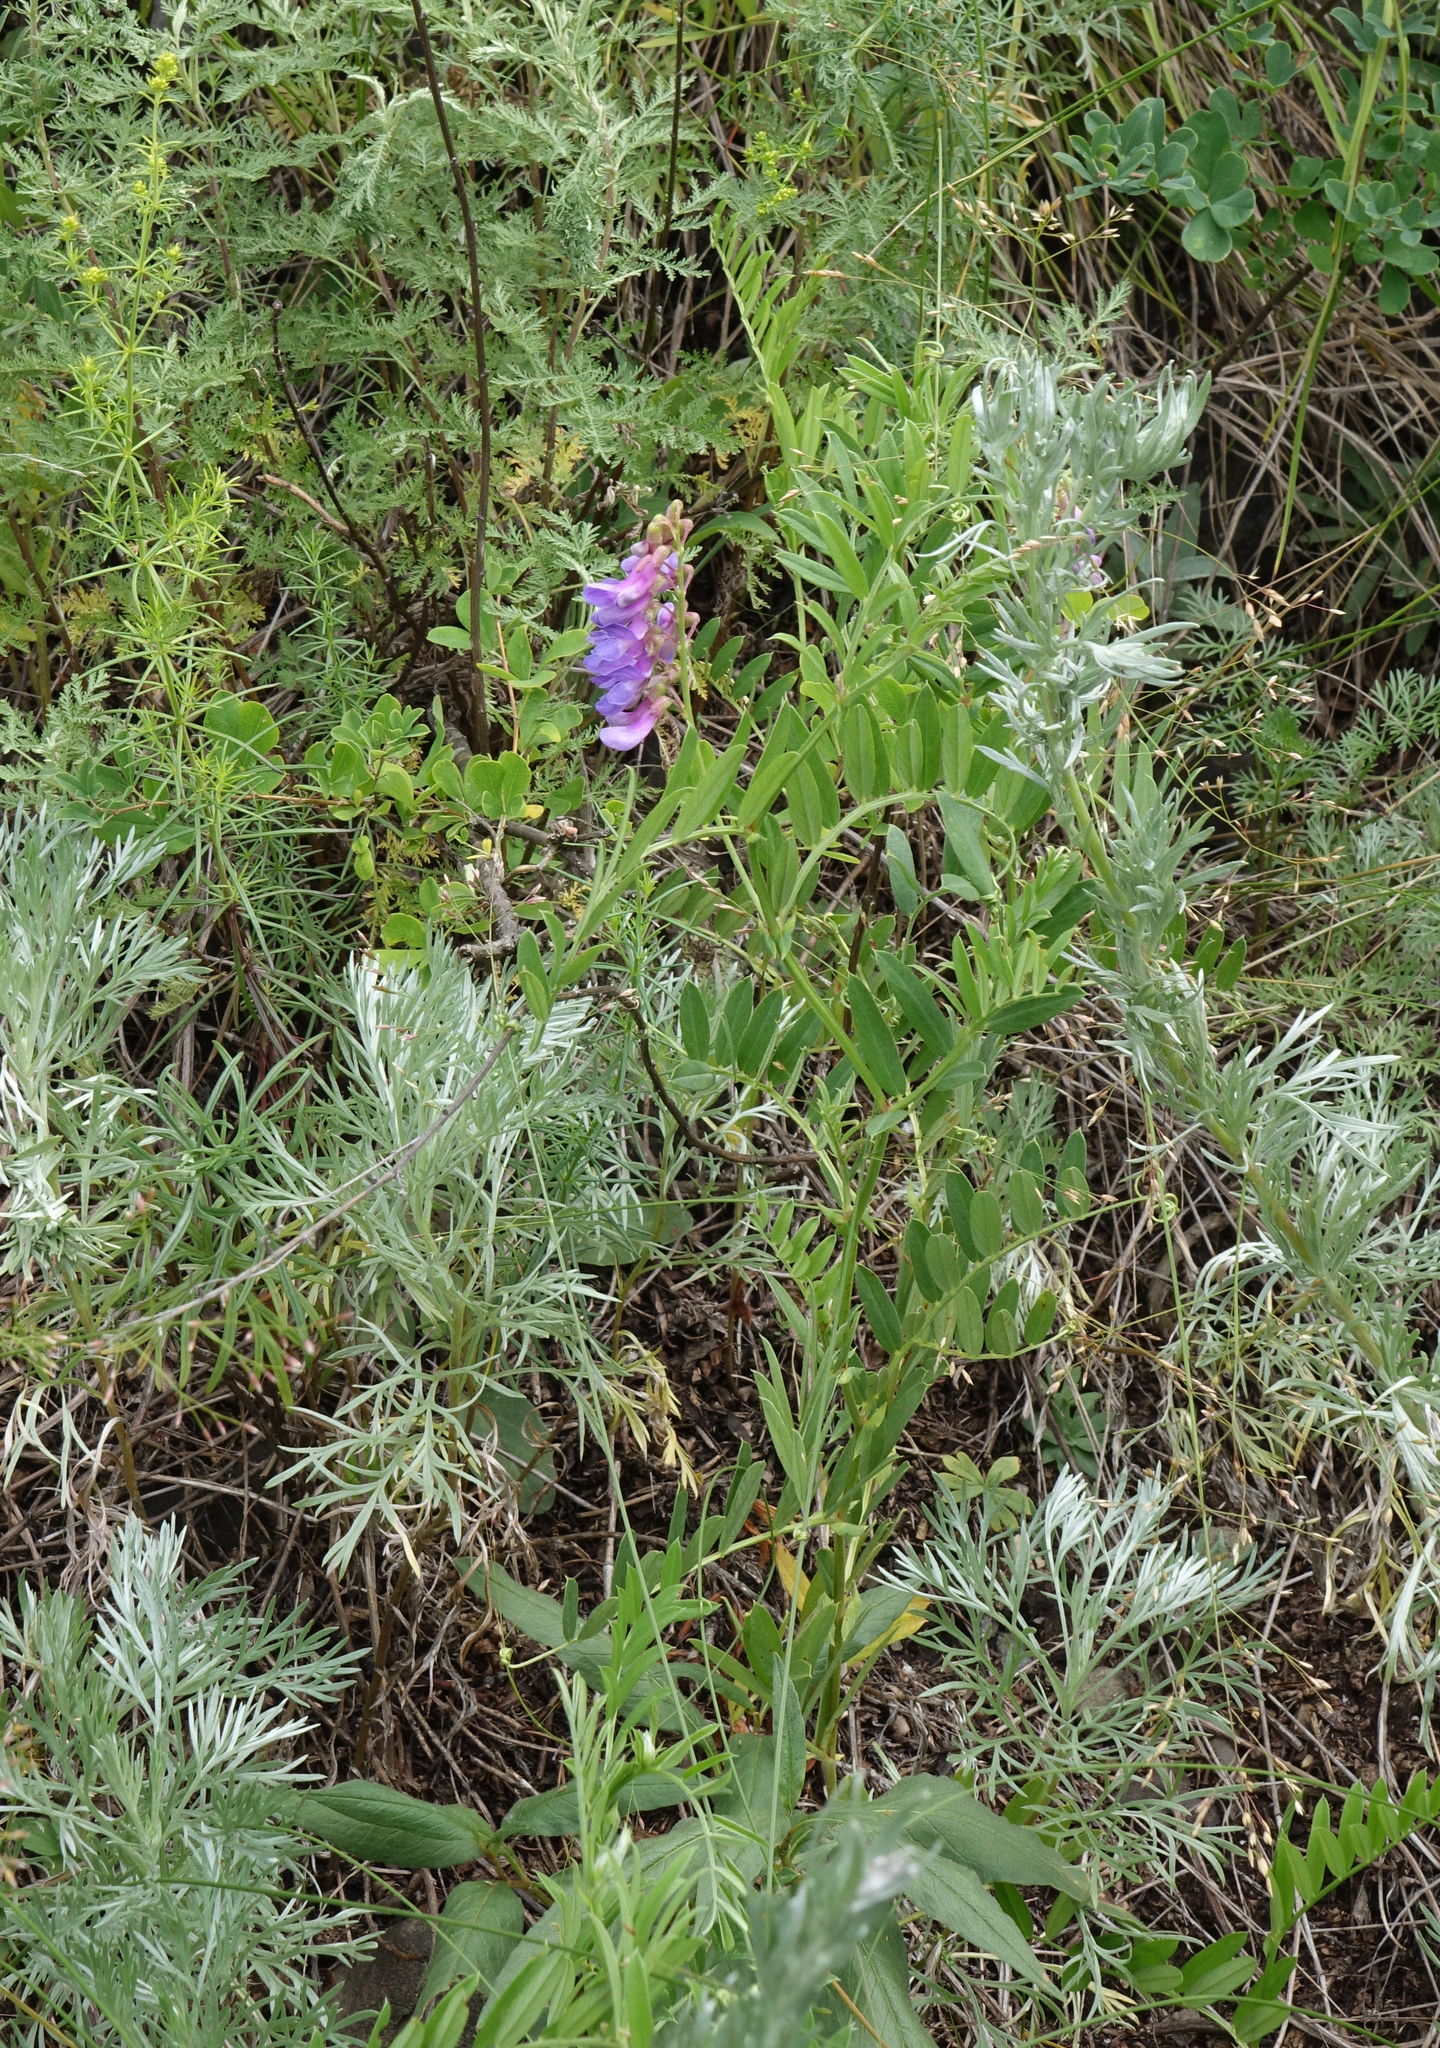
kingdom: Plantae
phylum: Tracheophyta
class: Magnoliopsida
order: Fabales
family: Fabaceae
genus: Vicia
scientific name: Vicia amoena
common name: Cheder ebs
